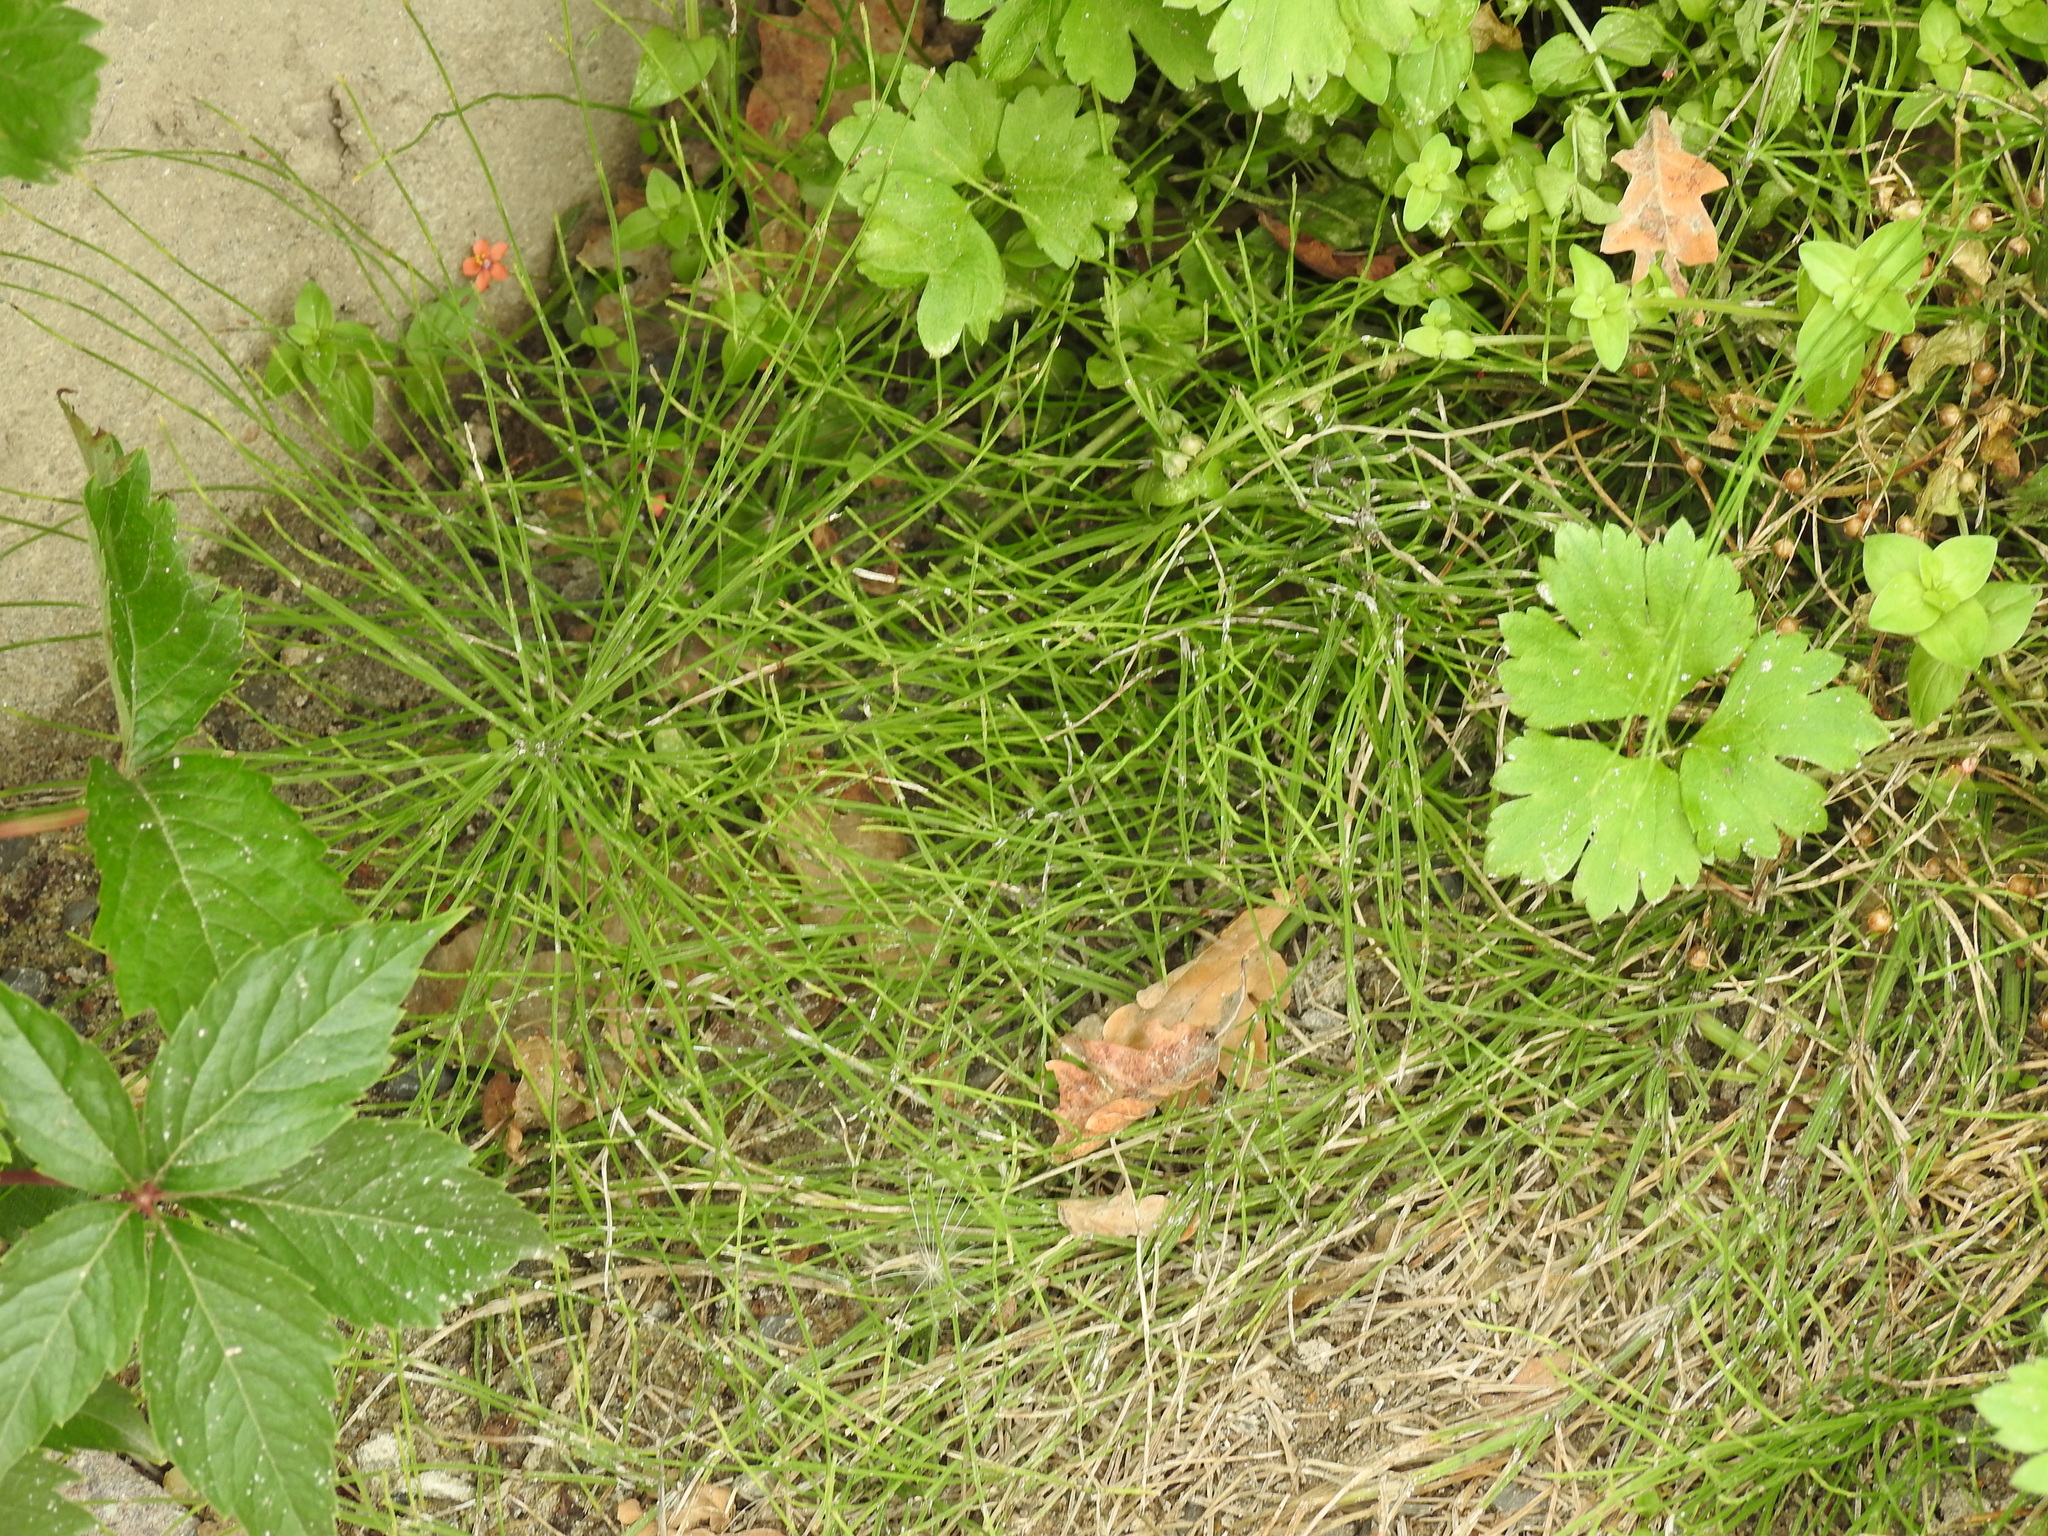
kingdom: Plantae
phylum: Tracheophyta
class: Polypodiopsida
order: Equisetales
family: Equisetaceae
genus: Equisetum
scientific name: Equisetum arvense
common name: Field horsetail
